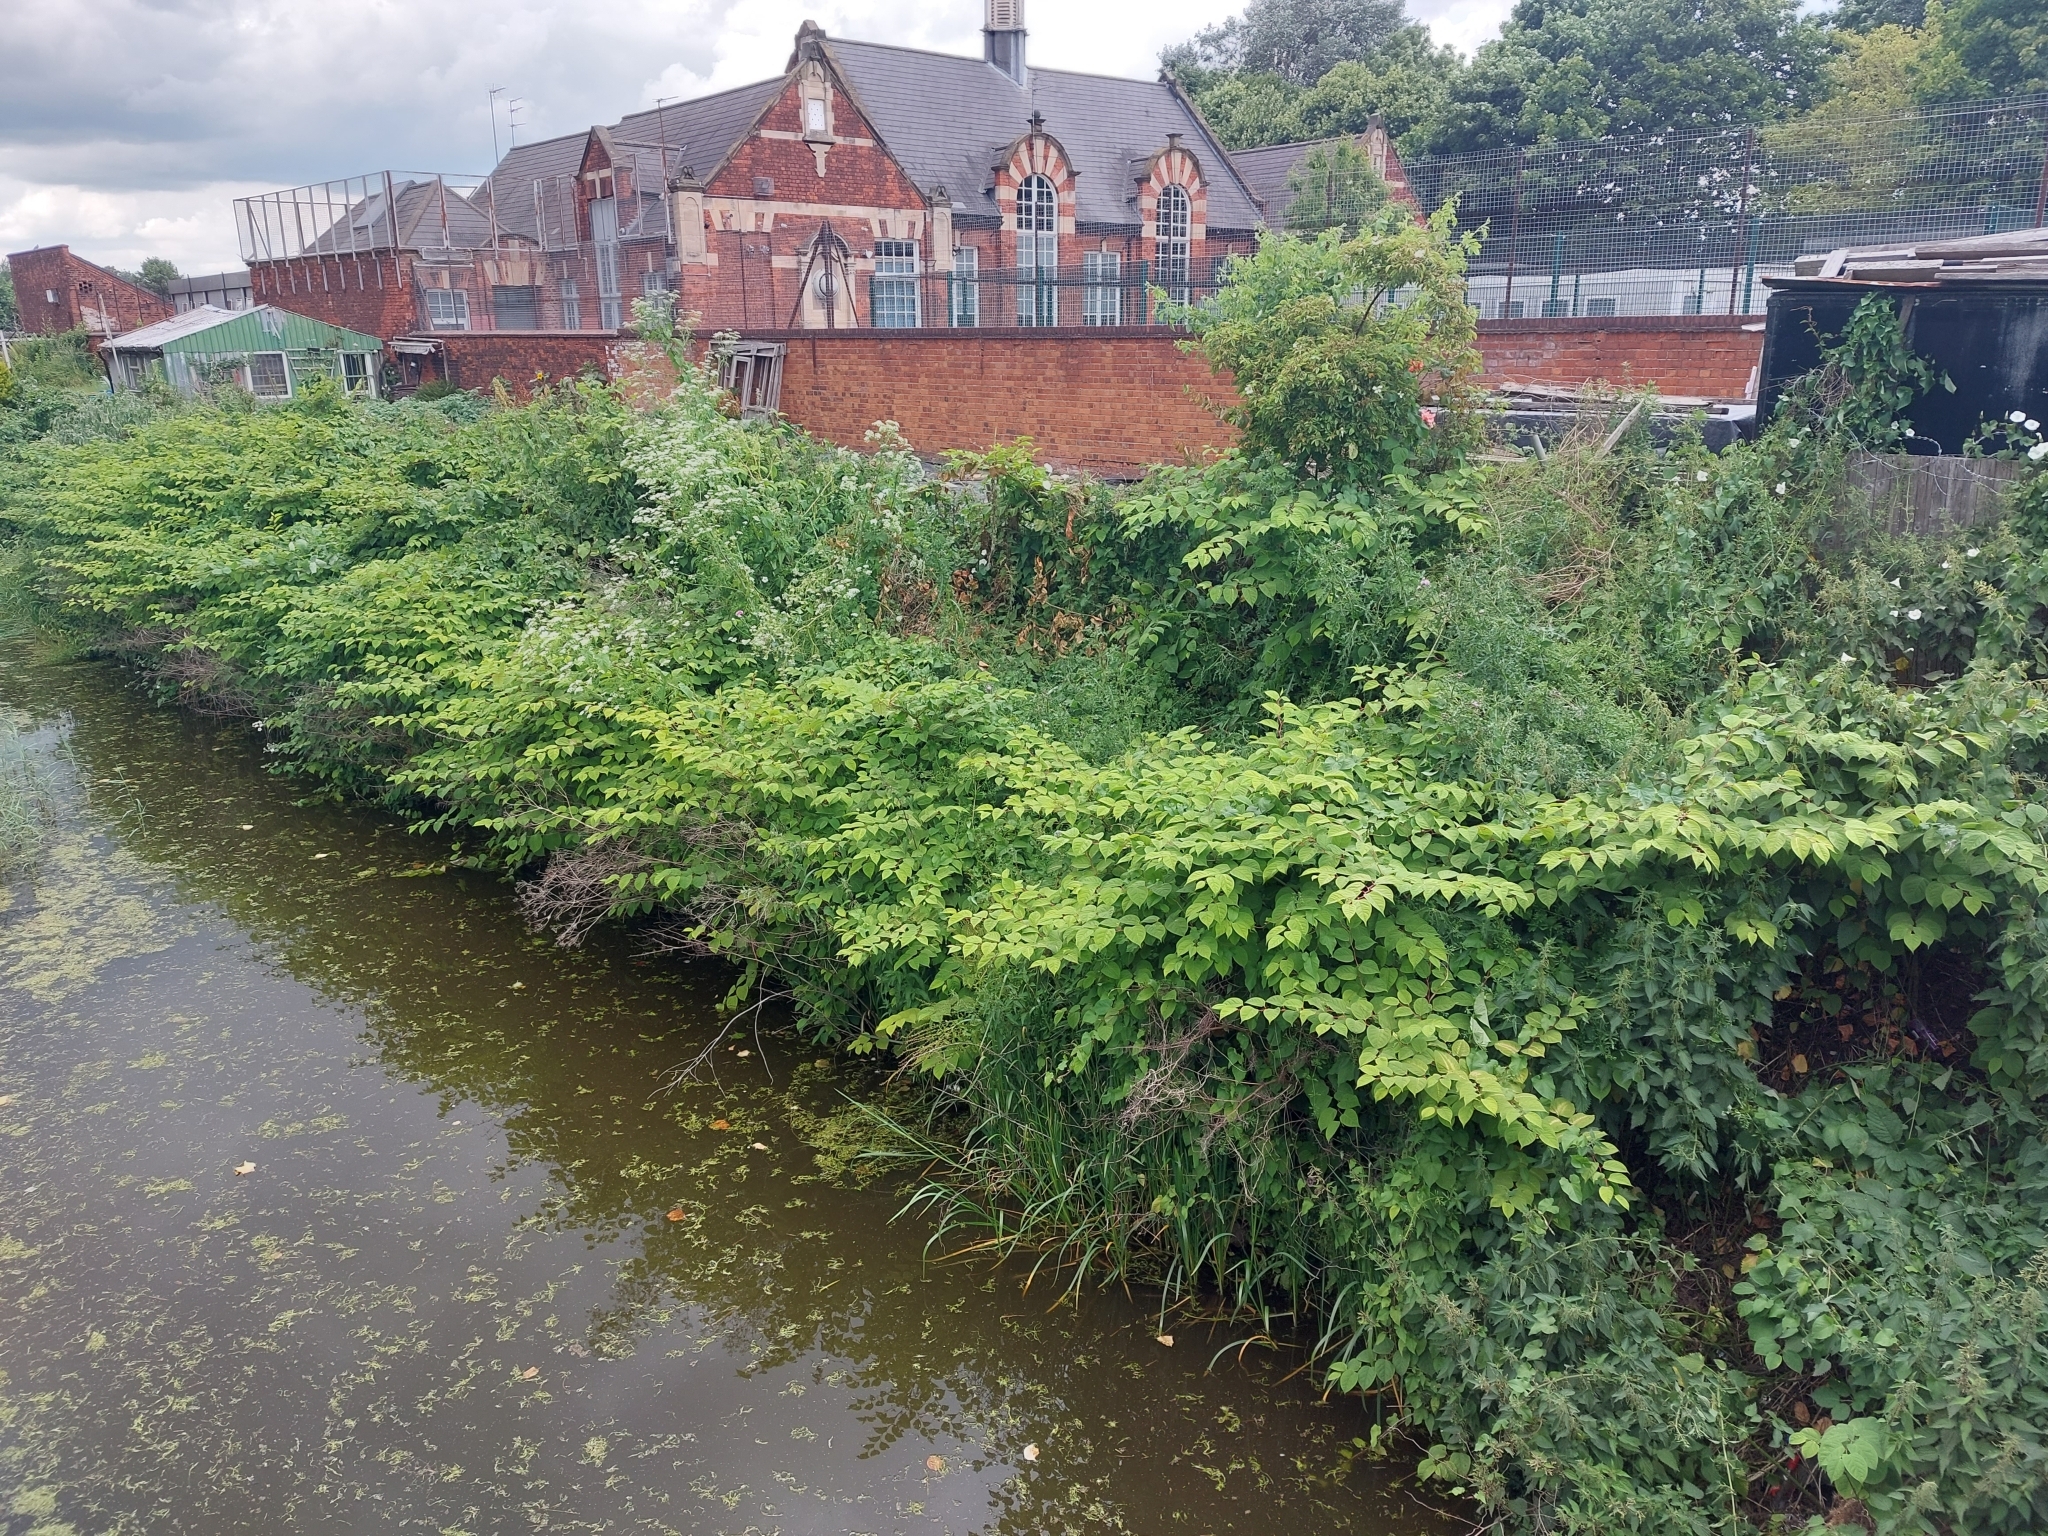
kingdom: Plantae
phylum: Tracheophyta
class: Magnoliopsida
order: Caryophyllales
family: Polygonaceae
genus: Reynoutria
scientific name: Reynoutria japonica
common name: Japanese knotweed
